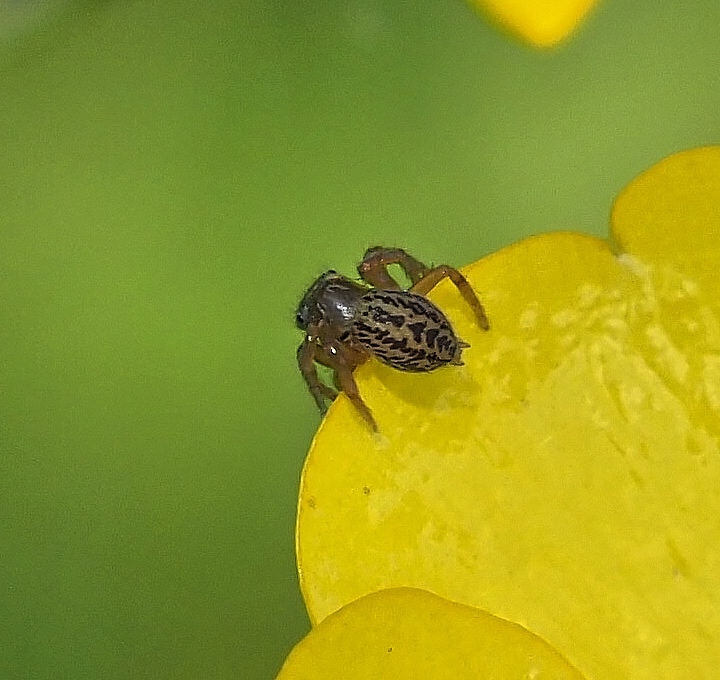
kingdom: Animalia
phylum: Arthropoda
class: Arachnida
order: Araneae
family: Salticidae
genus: Euophrys
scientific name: Euophrys frontalis
